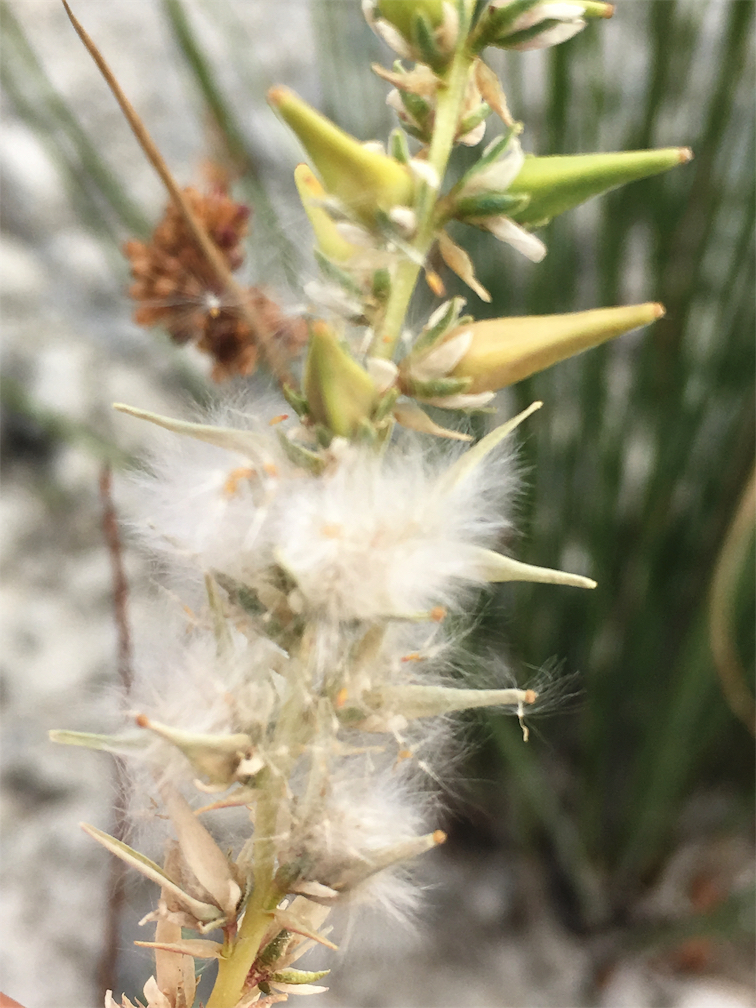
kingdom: Plantae
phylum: Tracheophyta
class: Magnoliopsida
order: Caryophyllales
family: Tamaricaceae
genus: Myricaria
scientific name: Myricaria germanica
